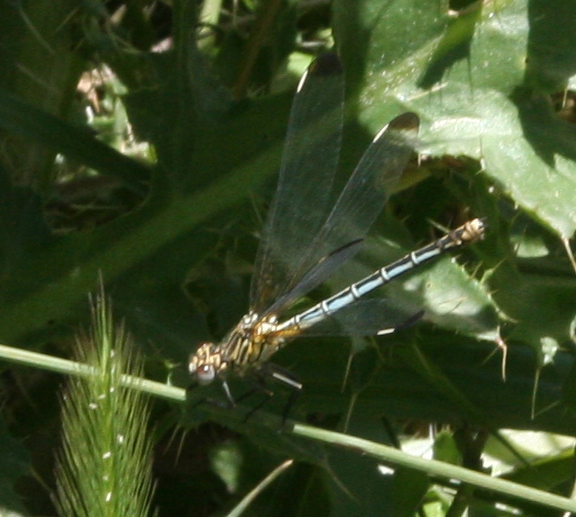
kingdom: Animalia
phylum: Arthropoda
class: Insecta
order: Odonata
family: Euphaeidae
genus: Epallage
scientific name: Epallage fatime
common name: Odalisque
